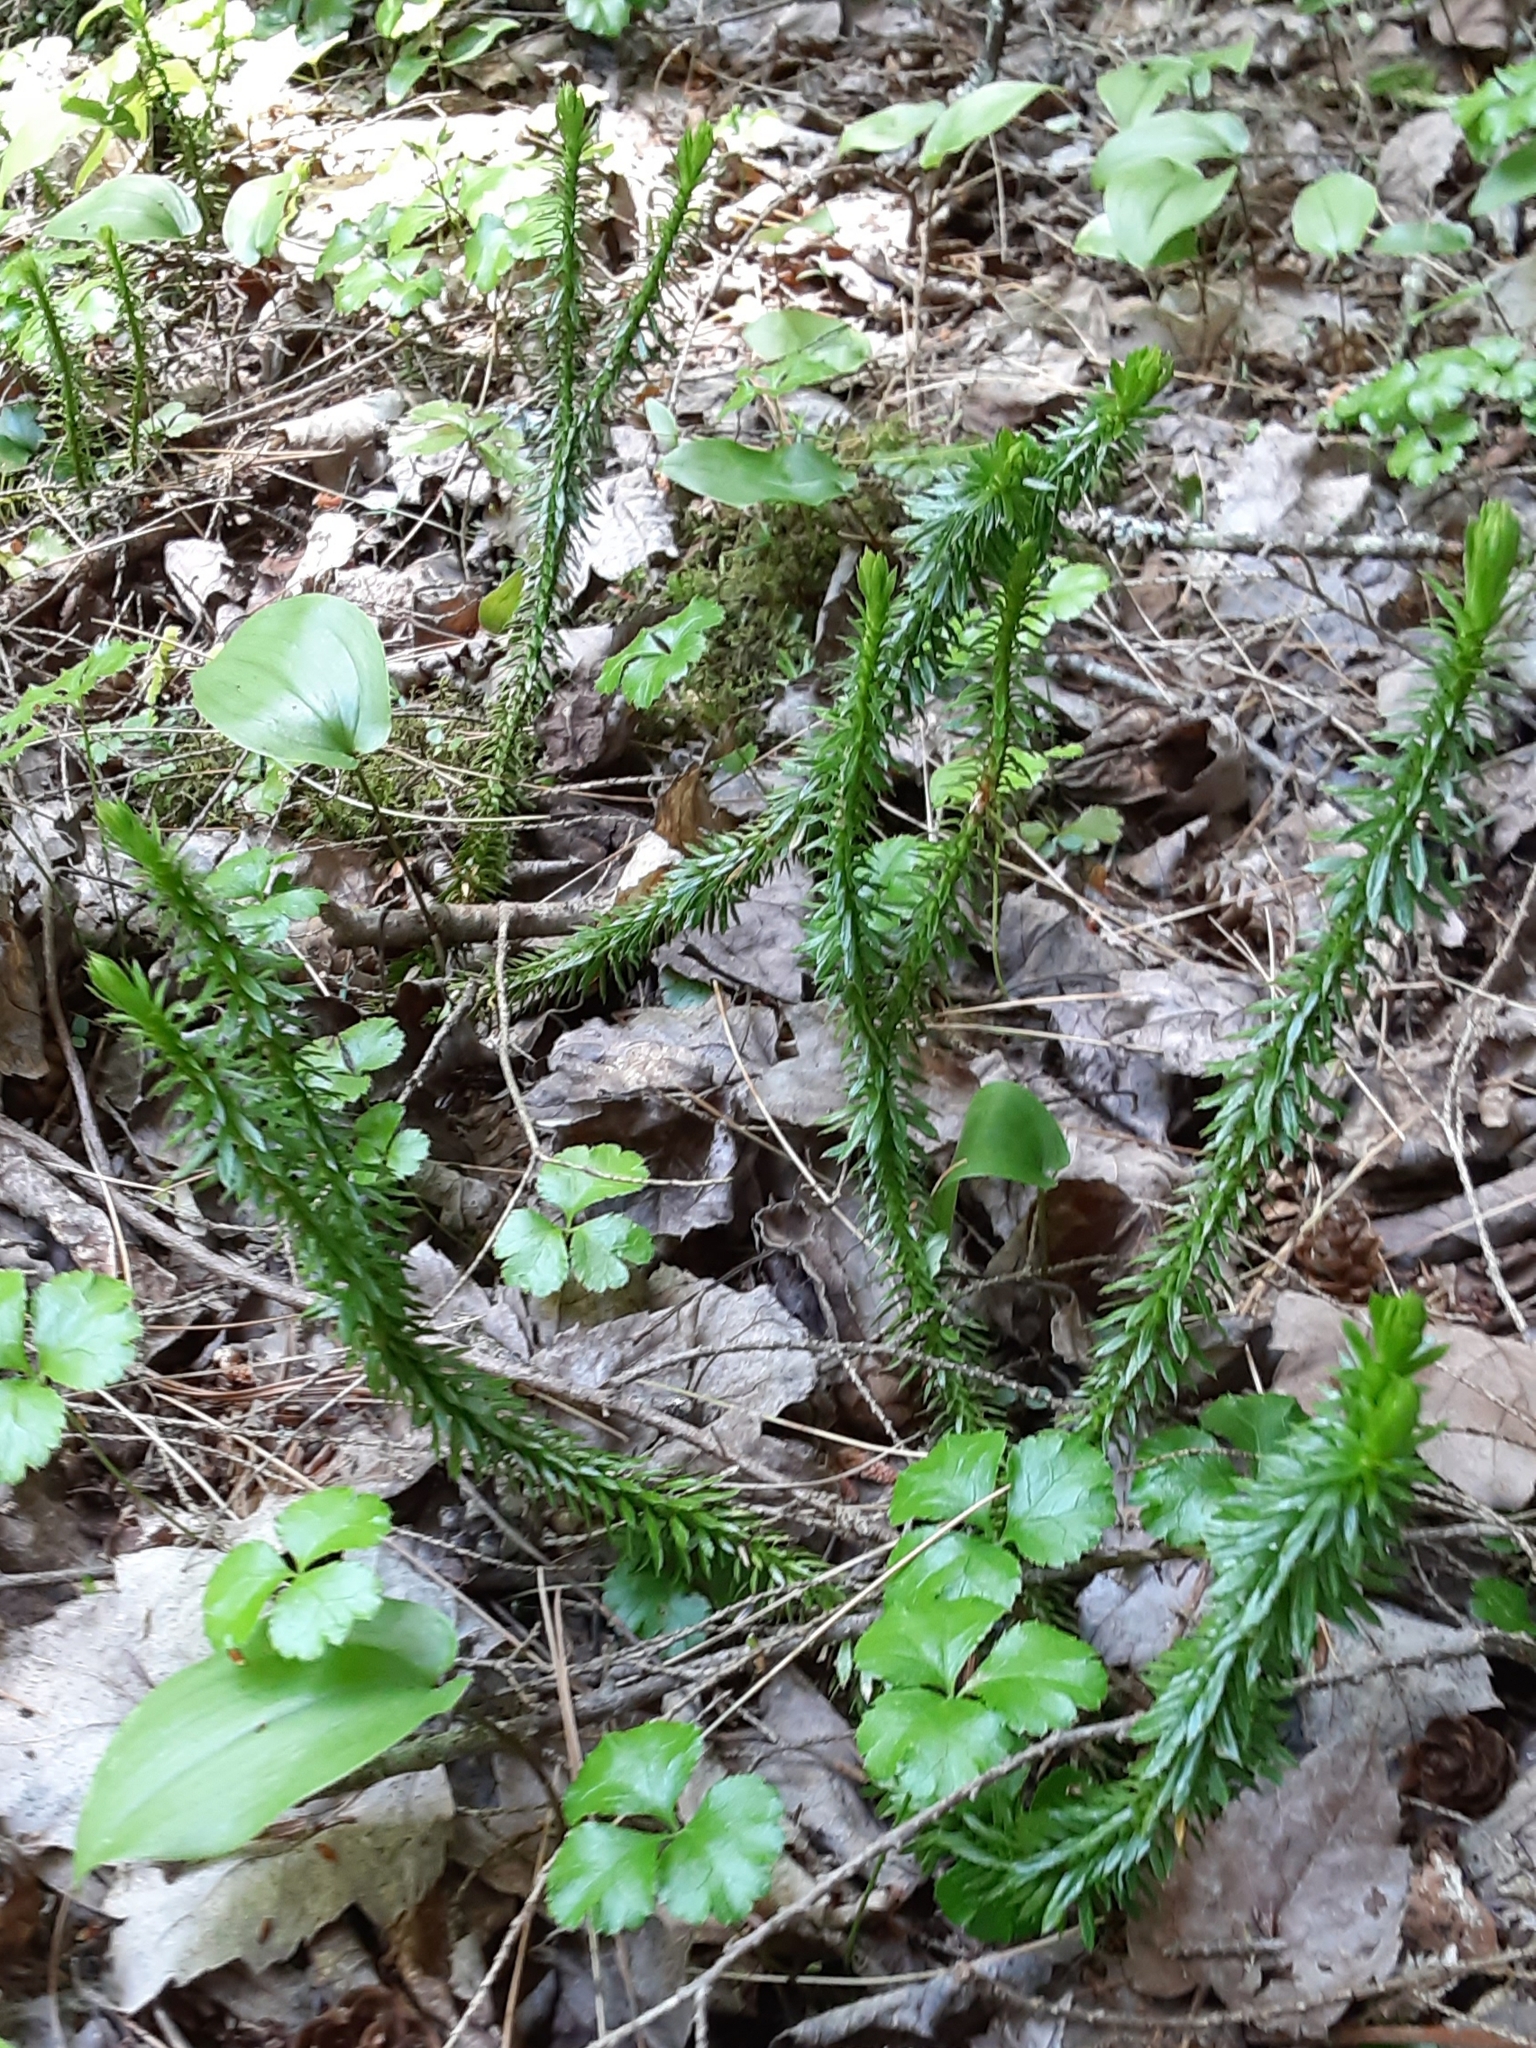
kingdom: Plantae
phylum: Tracheophyta
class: Lycopodiopsida
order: Lycopodiales
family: Lycopodiaceae
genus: Huperzia
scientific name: Huperzia lucidula
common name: Shining clubmoss
